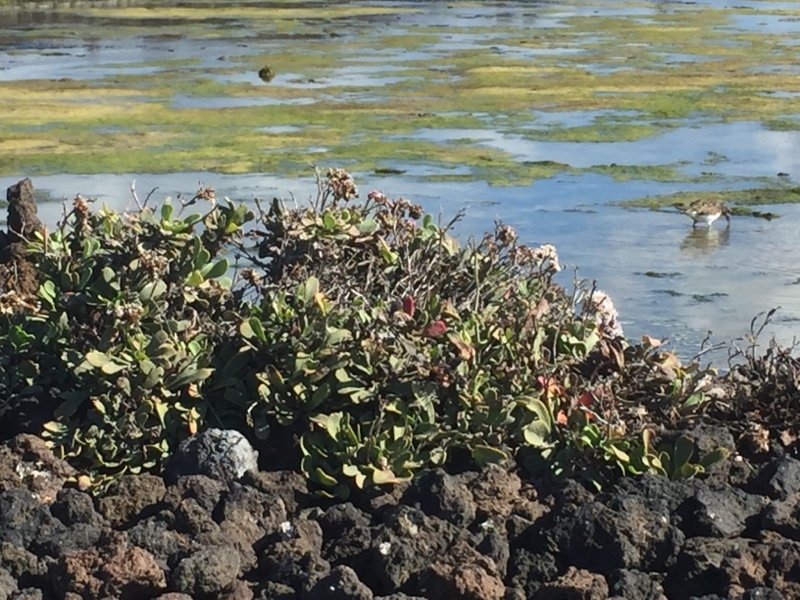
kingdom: Plantae
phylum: Tracheophyta
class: Magnoliopsida
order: Caryophyllales
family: Plumbaginaceae
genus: Limonium
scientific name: Limonium pectinatum
